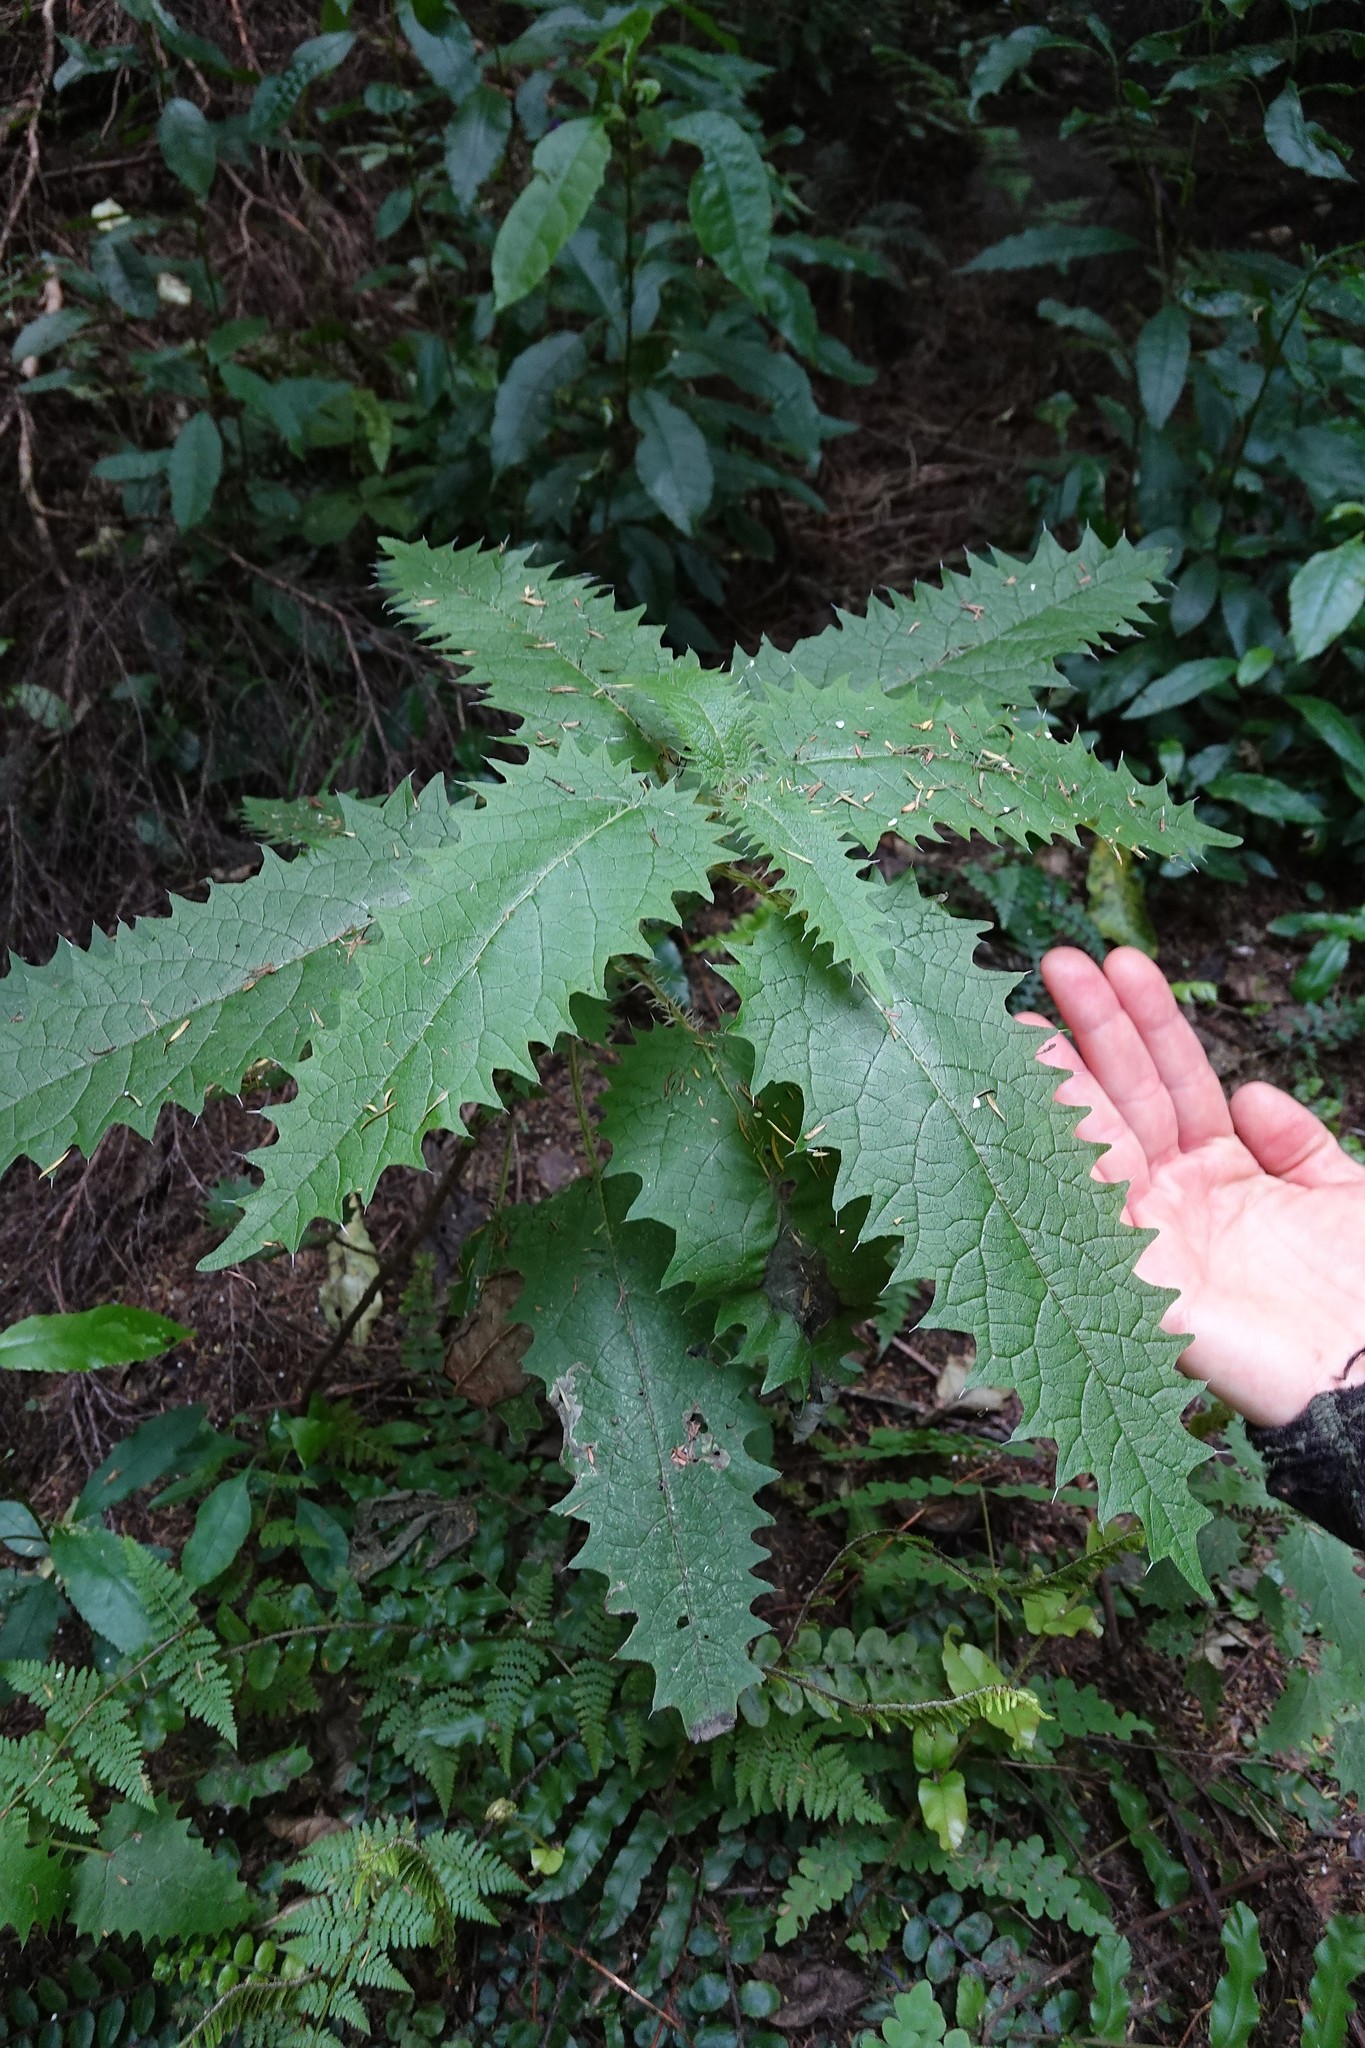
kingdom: Plantae
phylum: Tracheophyta
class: Magnoliopsida
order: Rosales
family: Urticaceae
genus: Urtica
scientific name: Urtica ferox
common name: Tree nettle
